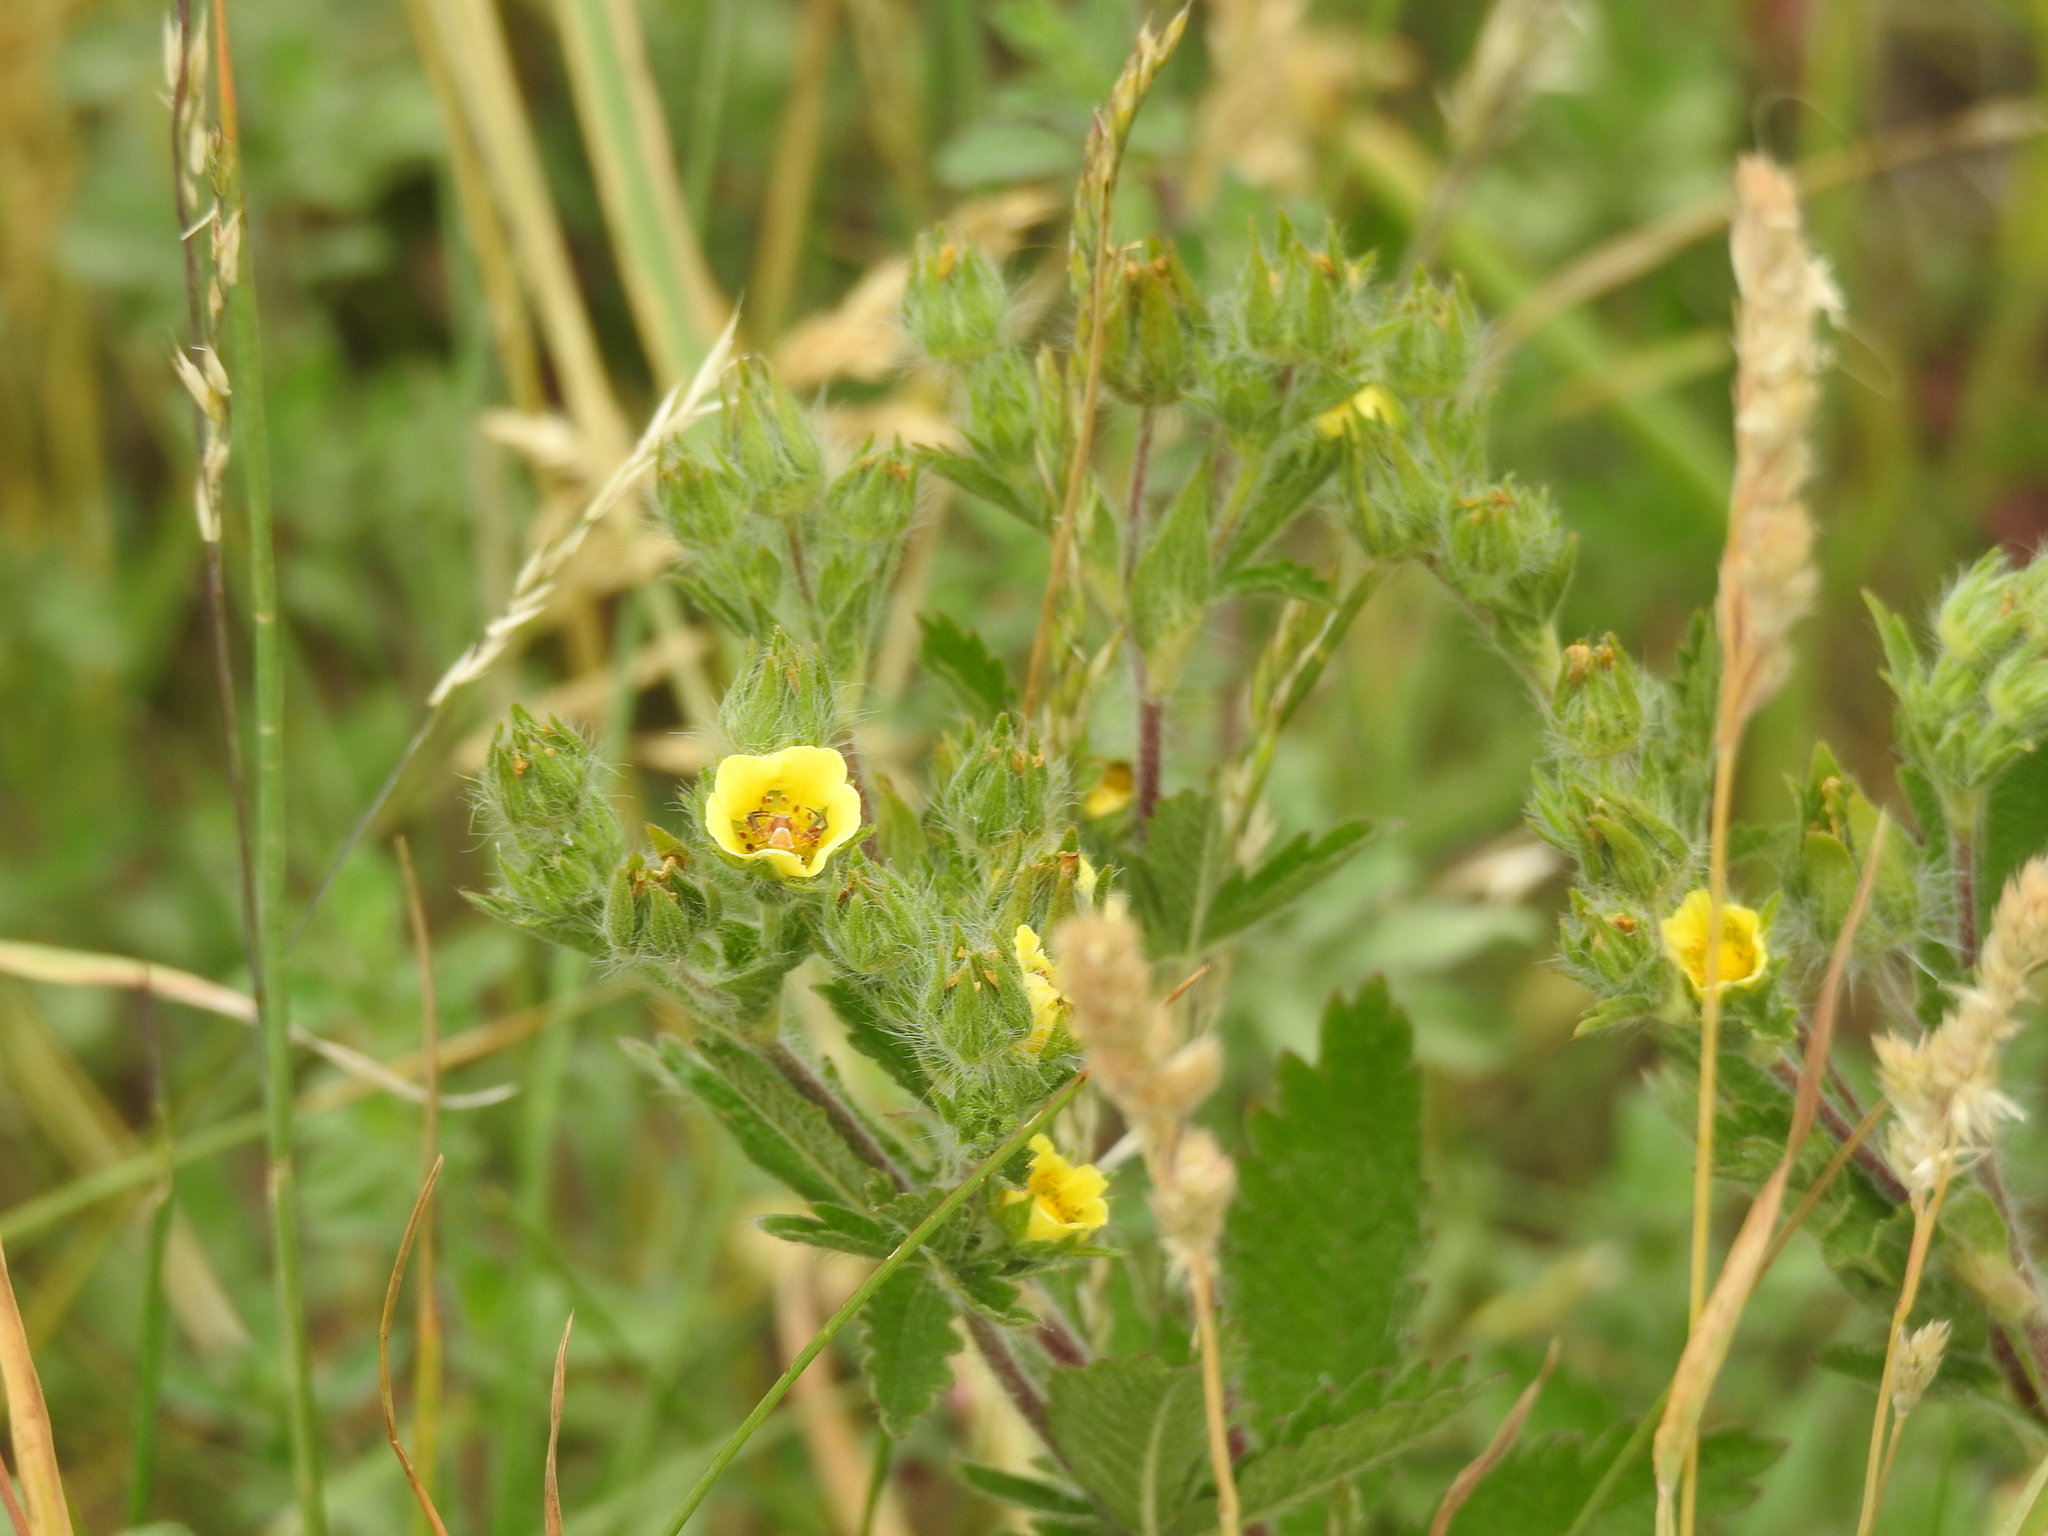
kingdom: Plantae
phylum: Tracheophyta
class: Magnoliopsida
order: Rosales
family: Rosaceae
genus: Potentilla
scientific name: Potentilla recta
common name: Sulphur cinquefoil
